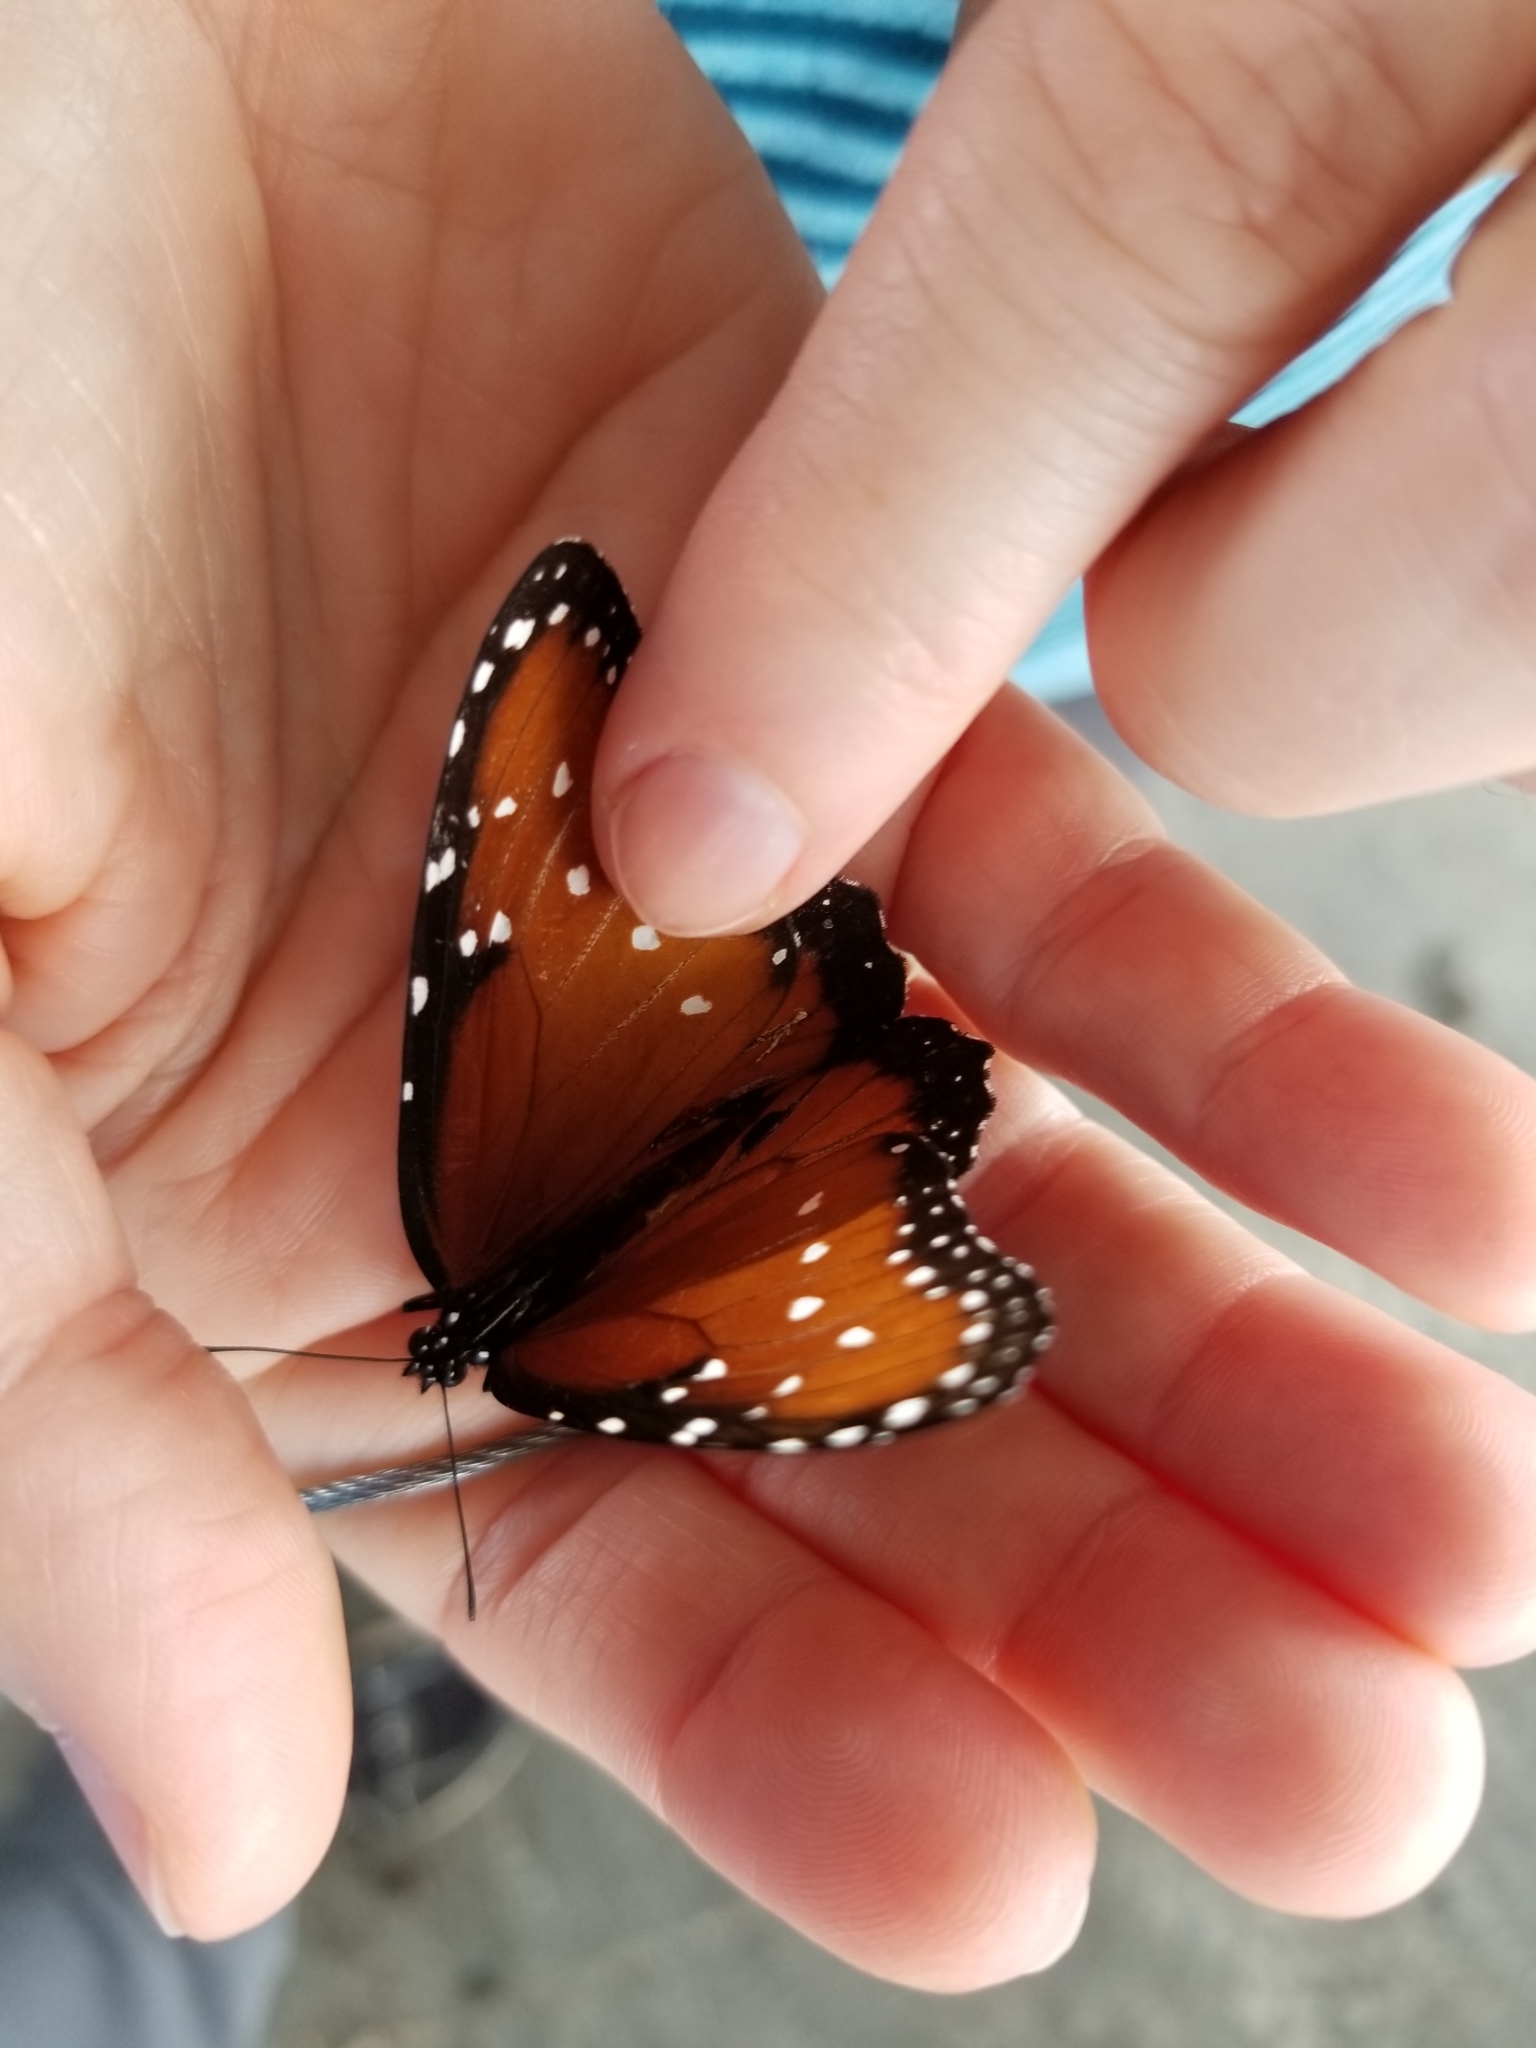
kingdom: Animalia
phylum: Arthropoda
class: Insecta
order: Lepidoptera
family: Nymphalidae
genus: Danaus
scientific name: Danaus gilippus
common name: Queen
